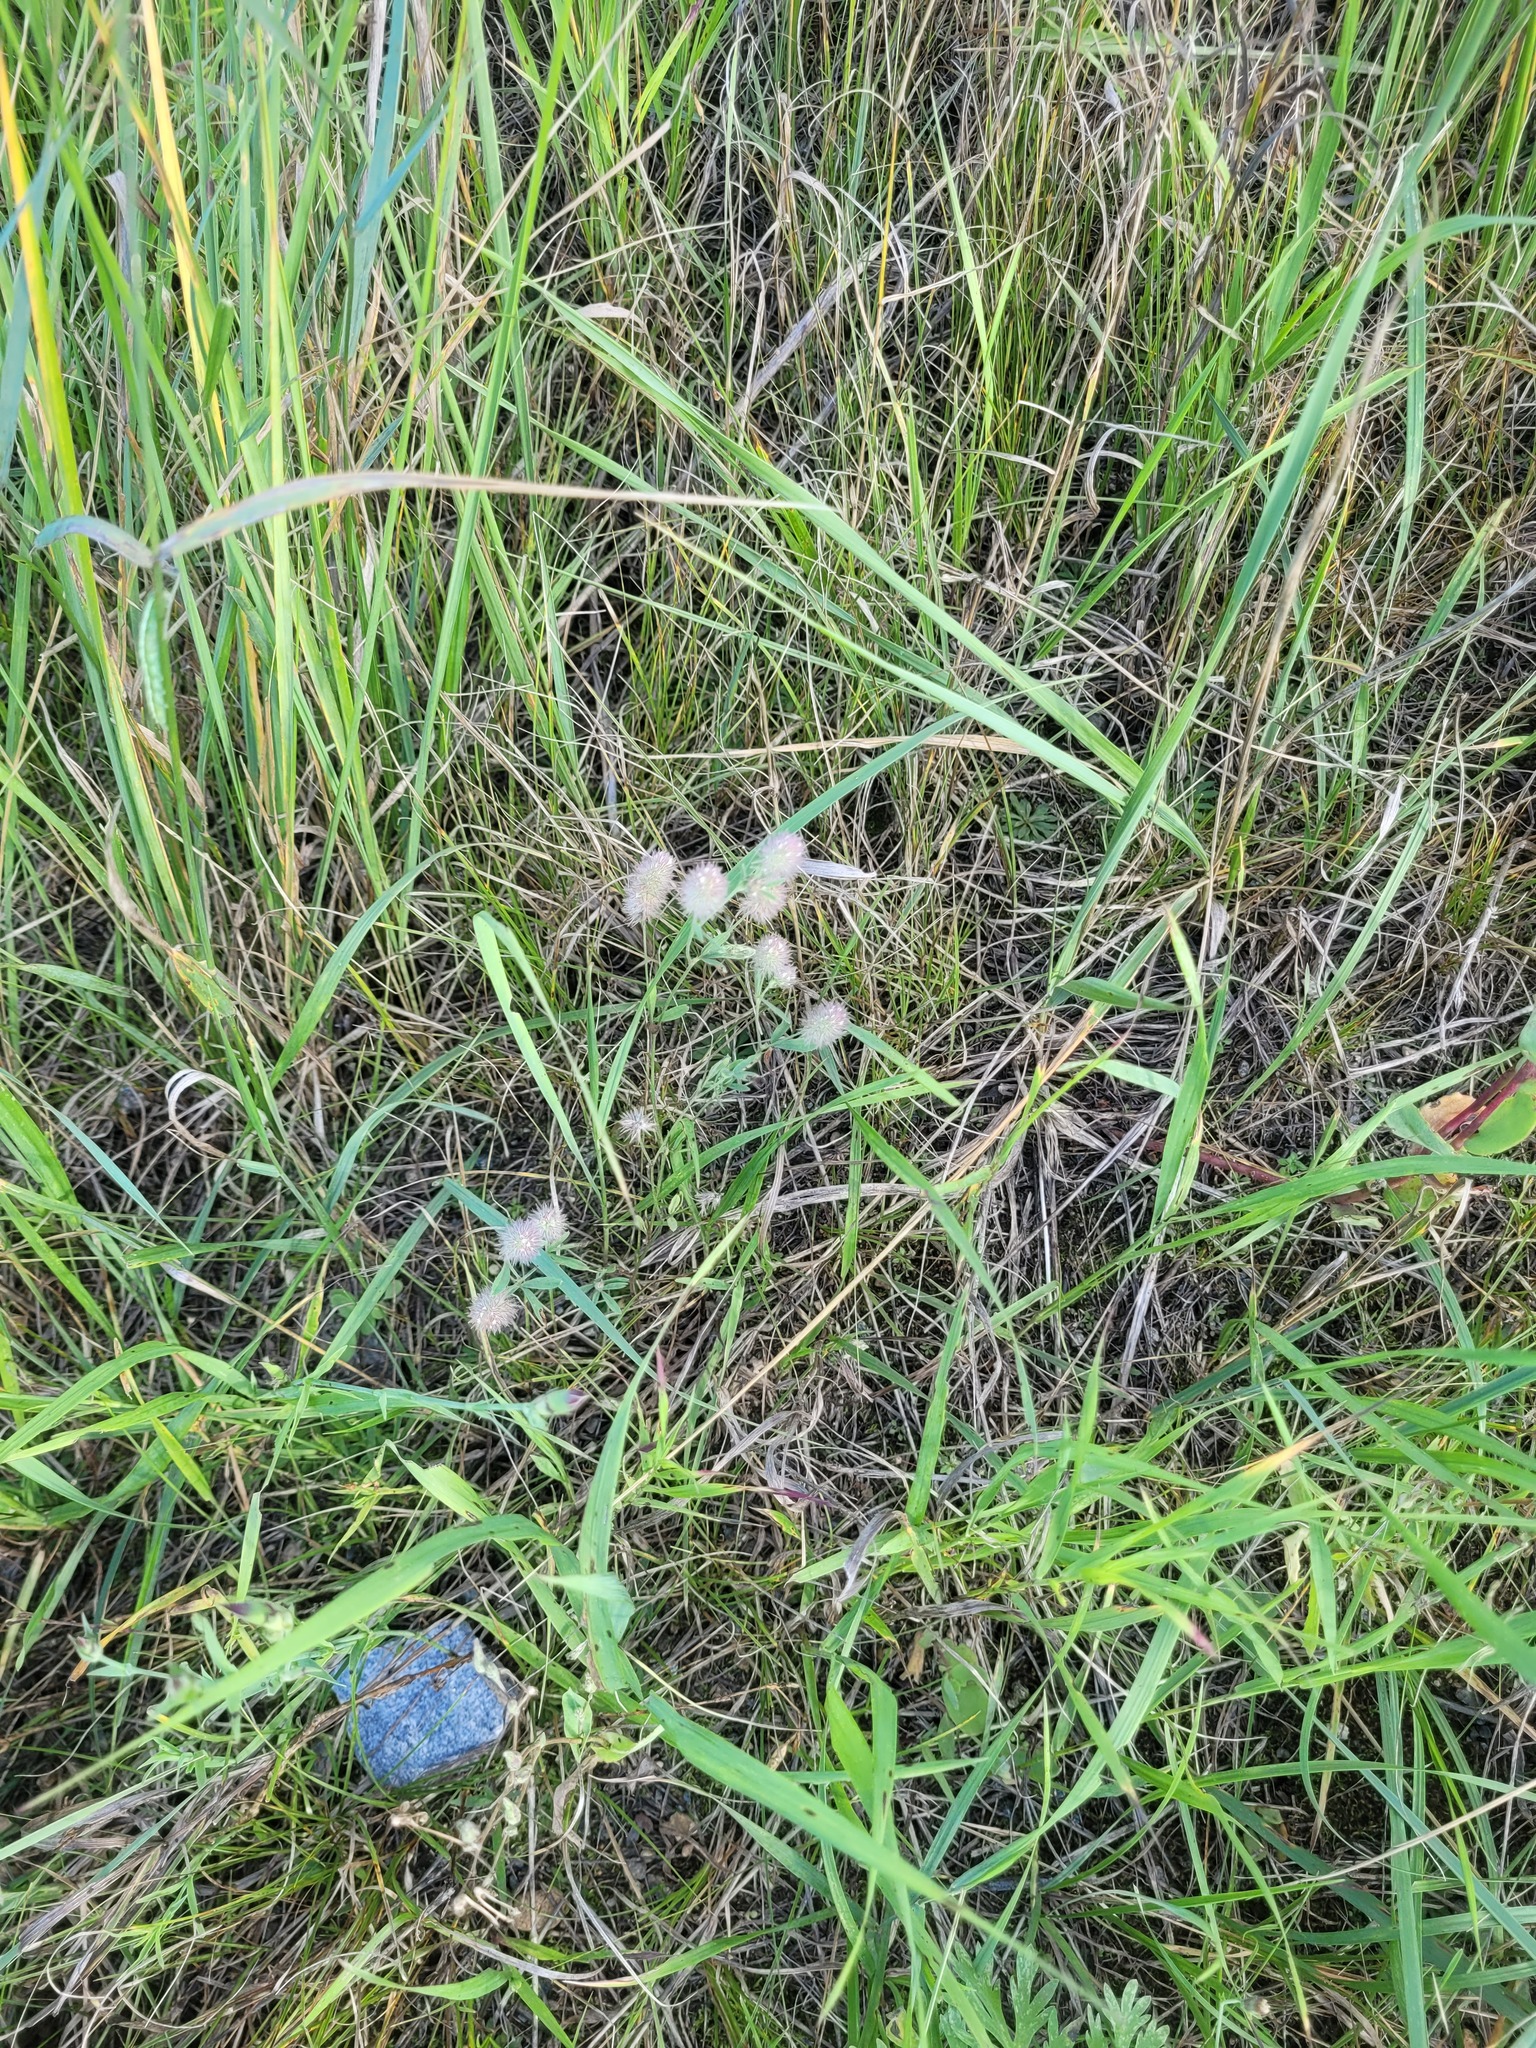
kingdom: Plantae
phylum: Tracheophyta
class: Magnoliopsida
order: Fabales
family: Fabaceae
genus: Trifolium
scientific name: Trifolium arvense
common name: Hare's-foot clover
